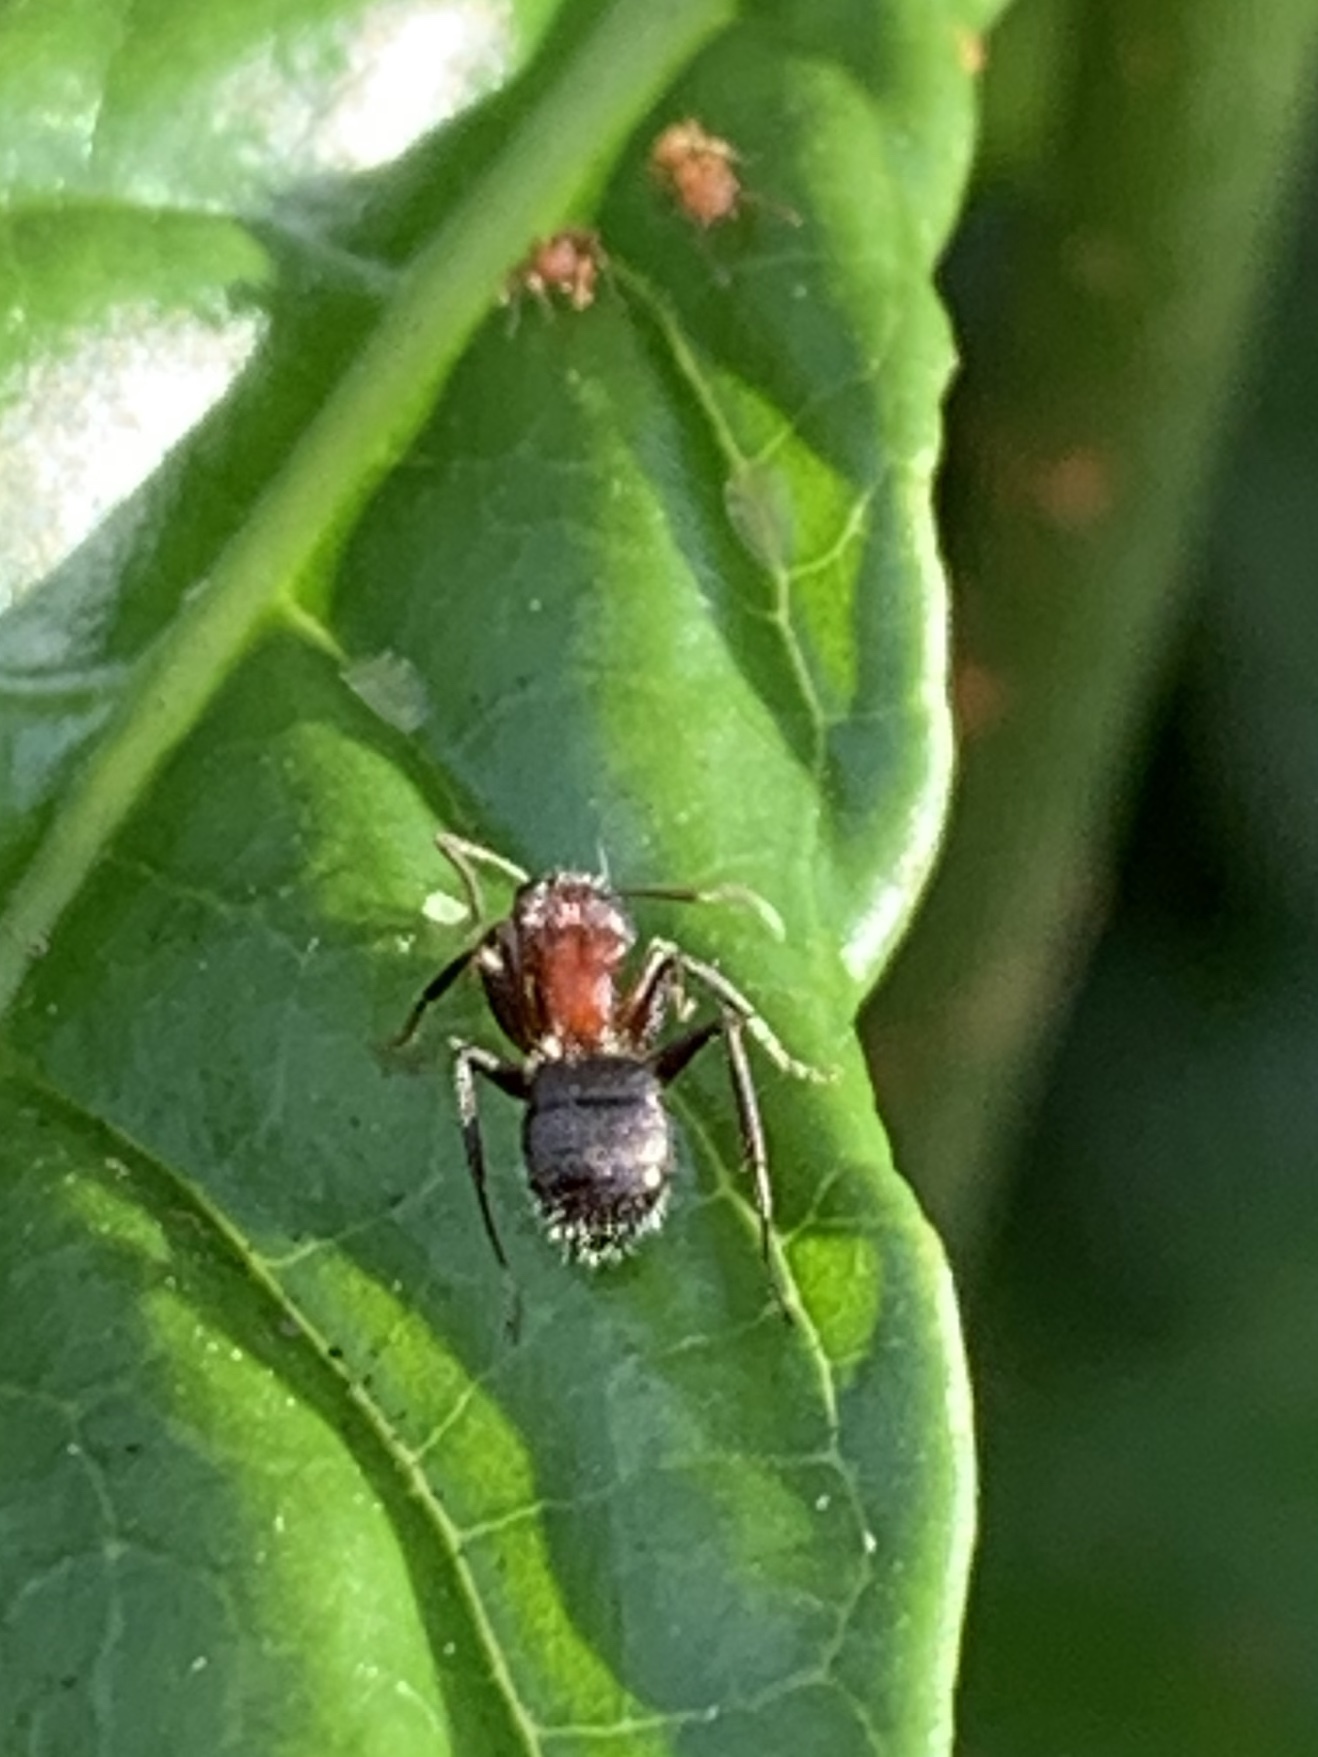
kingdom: Animalia
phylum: Arthropoda
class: Insecta
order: Hymenoptera
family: Formicidae
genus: Camponotus
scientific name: Camponotus planatus
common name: Compact carpenter ant
